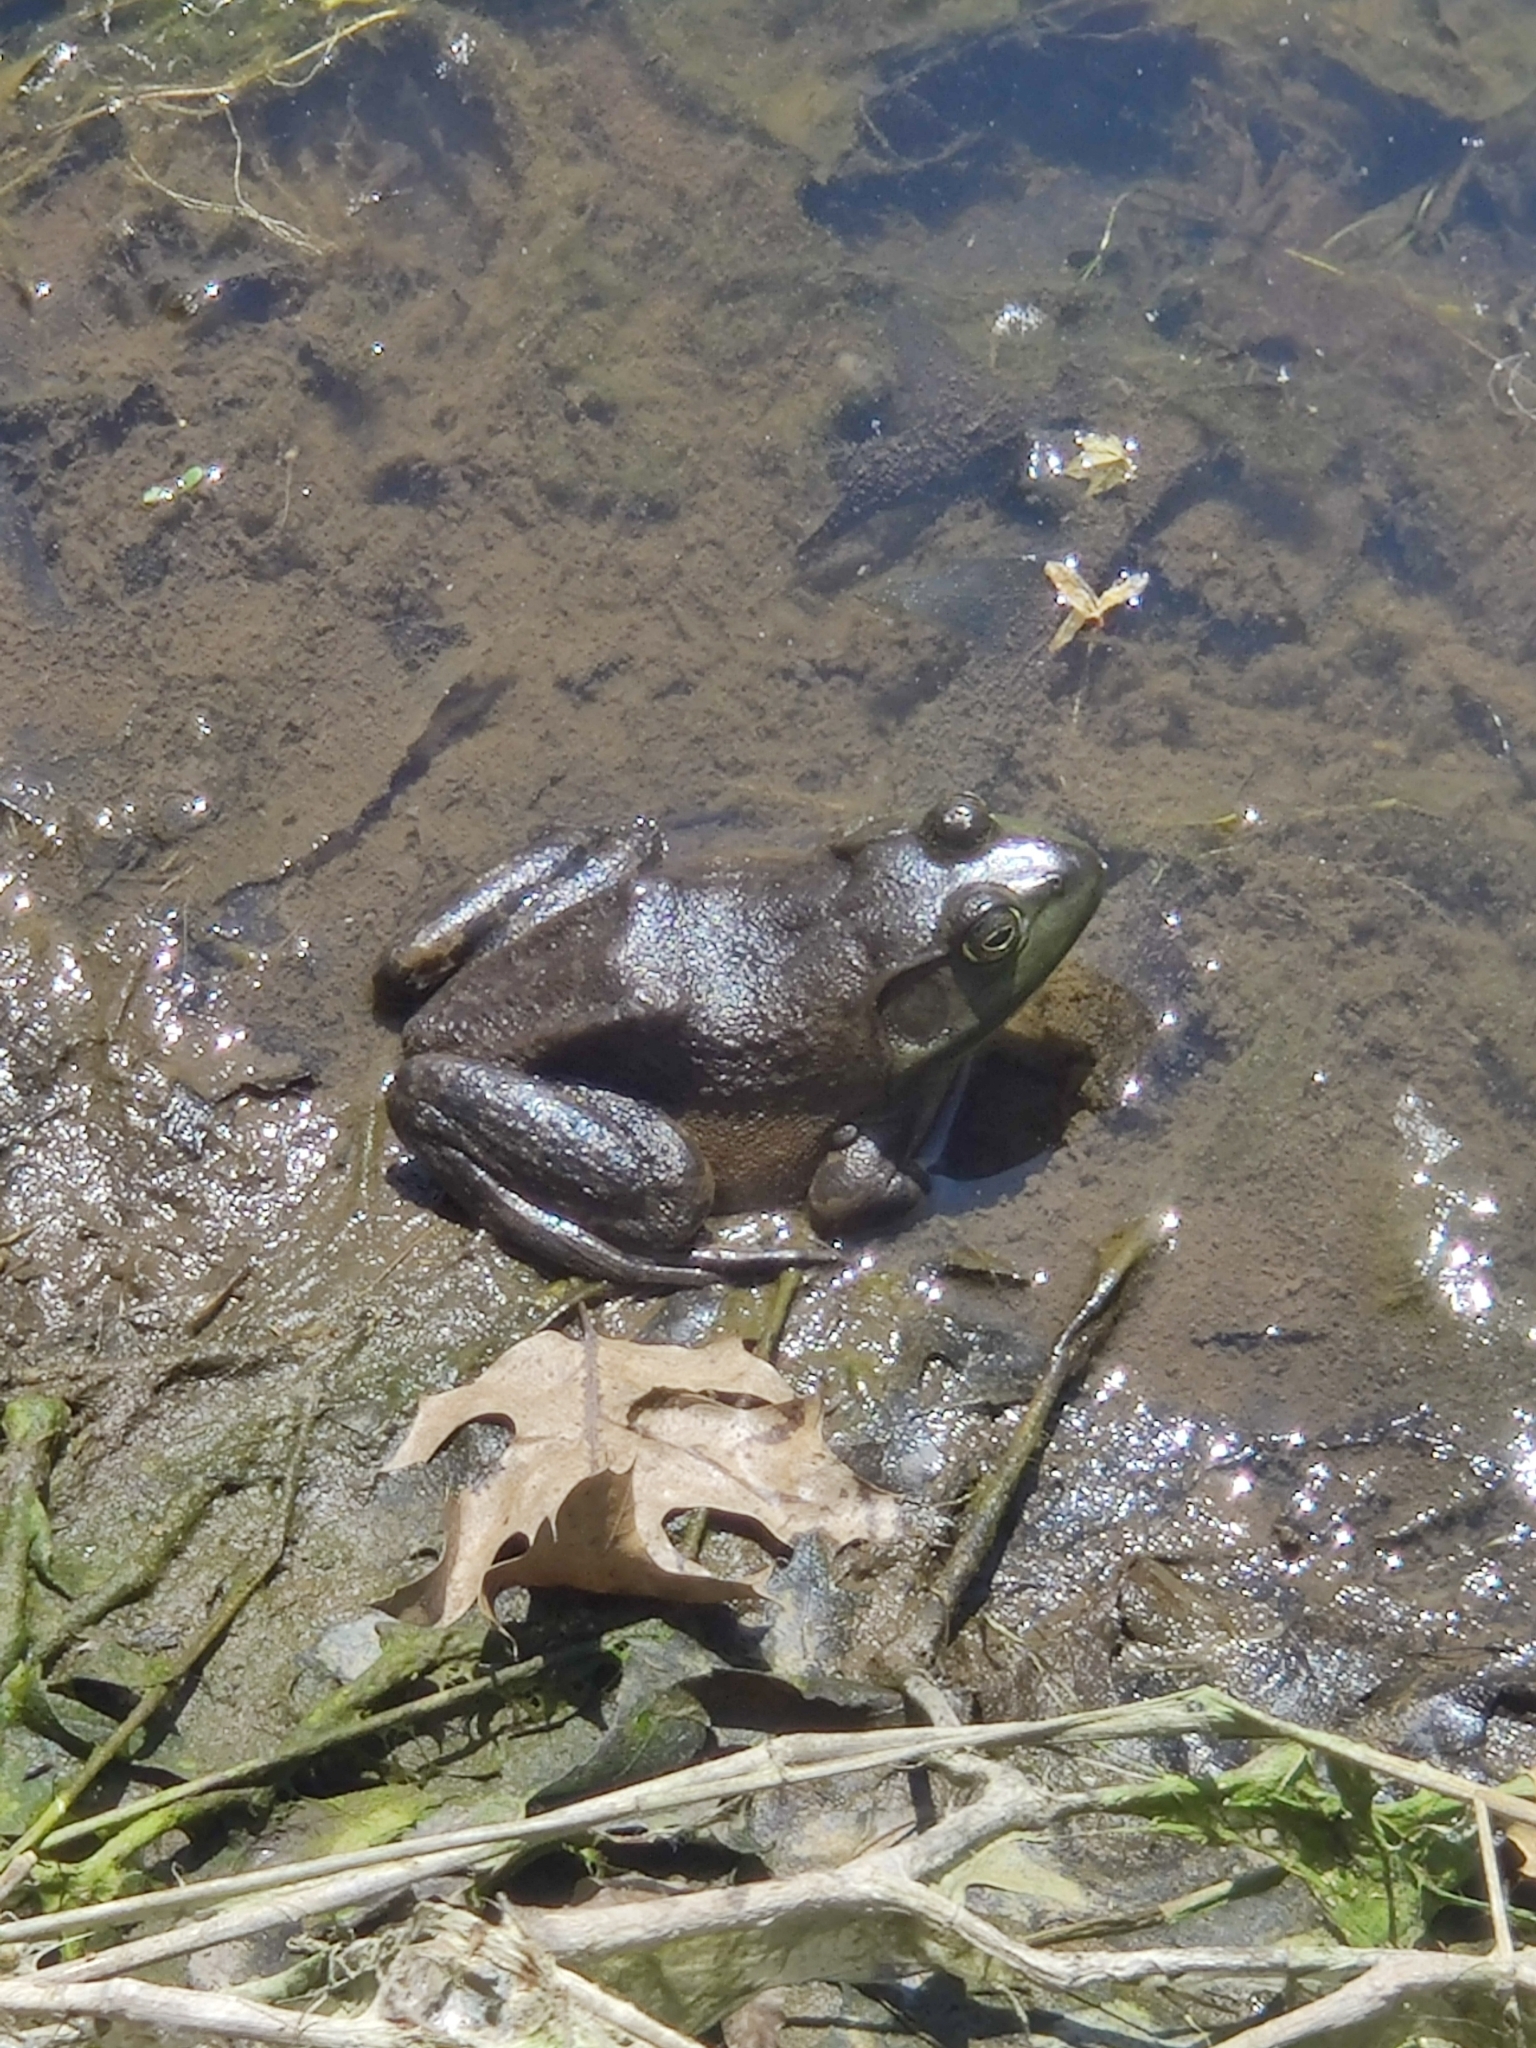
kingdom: Animalia
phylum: Chordata
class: Amphibia
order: Anura
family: Ranidae
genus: Lithobates
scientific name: Lithobates catesbeianus
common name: American bullfrog
